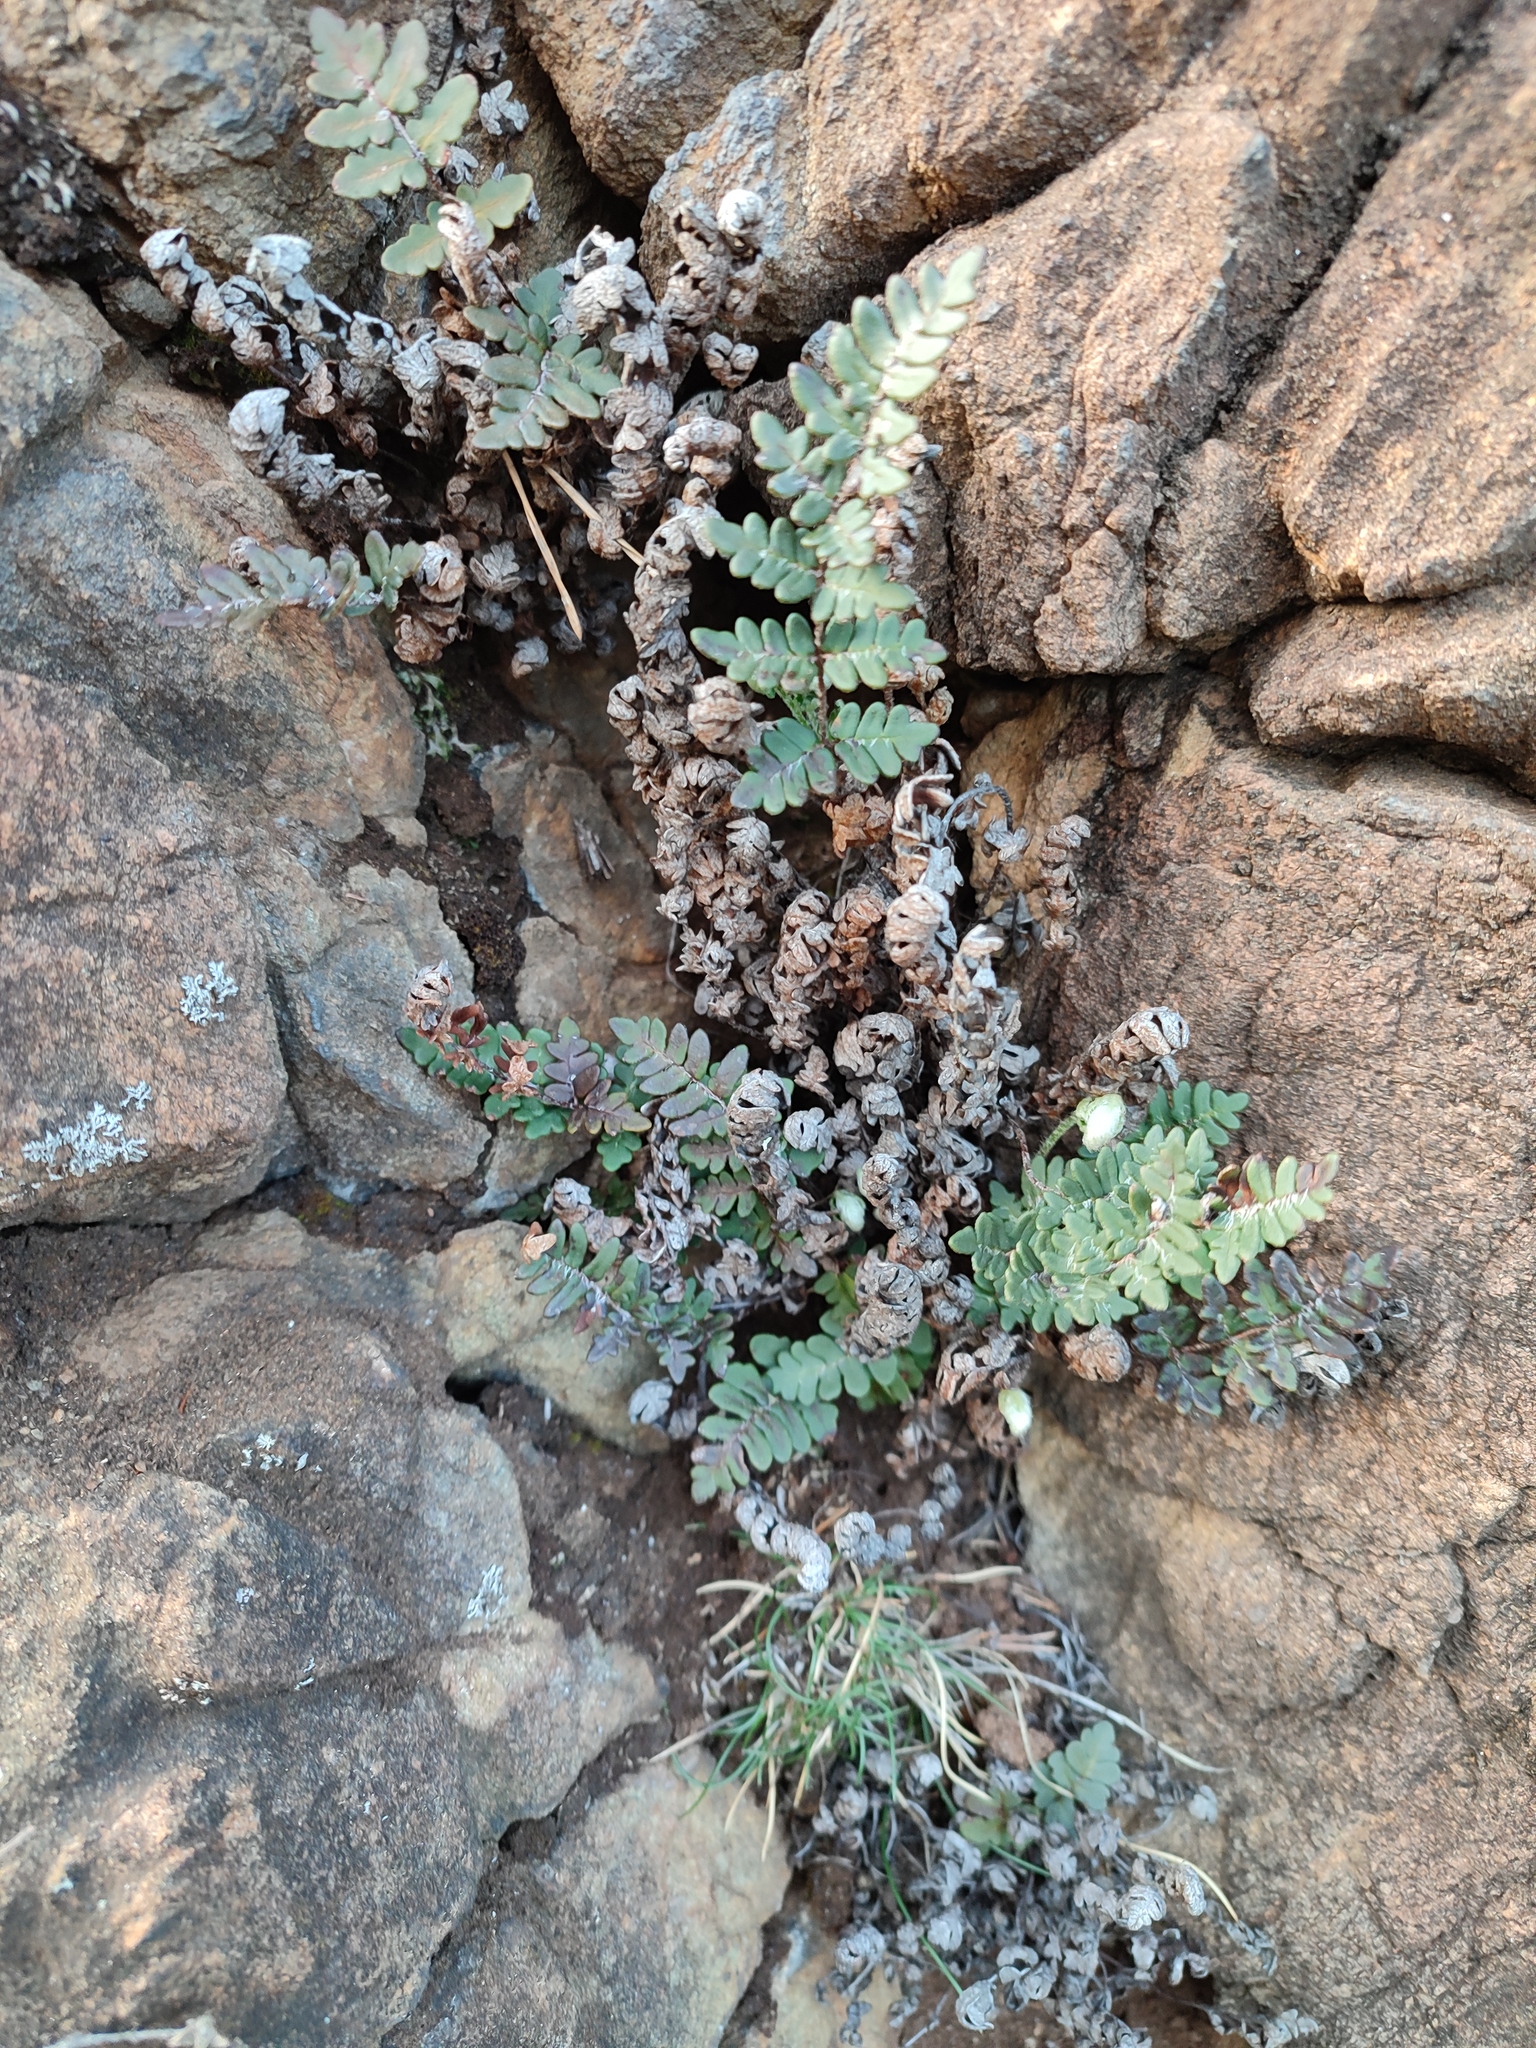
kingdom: Plantae
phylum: Tracheophyta
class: Polypodiopsida
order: Polypodiales
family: Pteridaceae
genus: Paragymnopteris
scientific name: Paragymnopteris marantae
